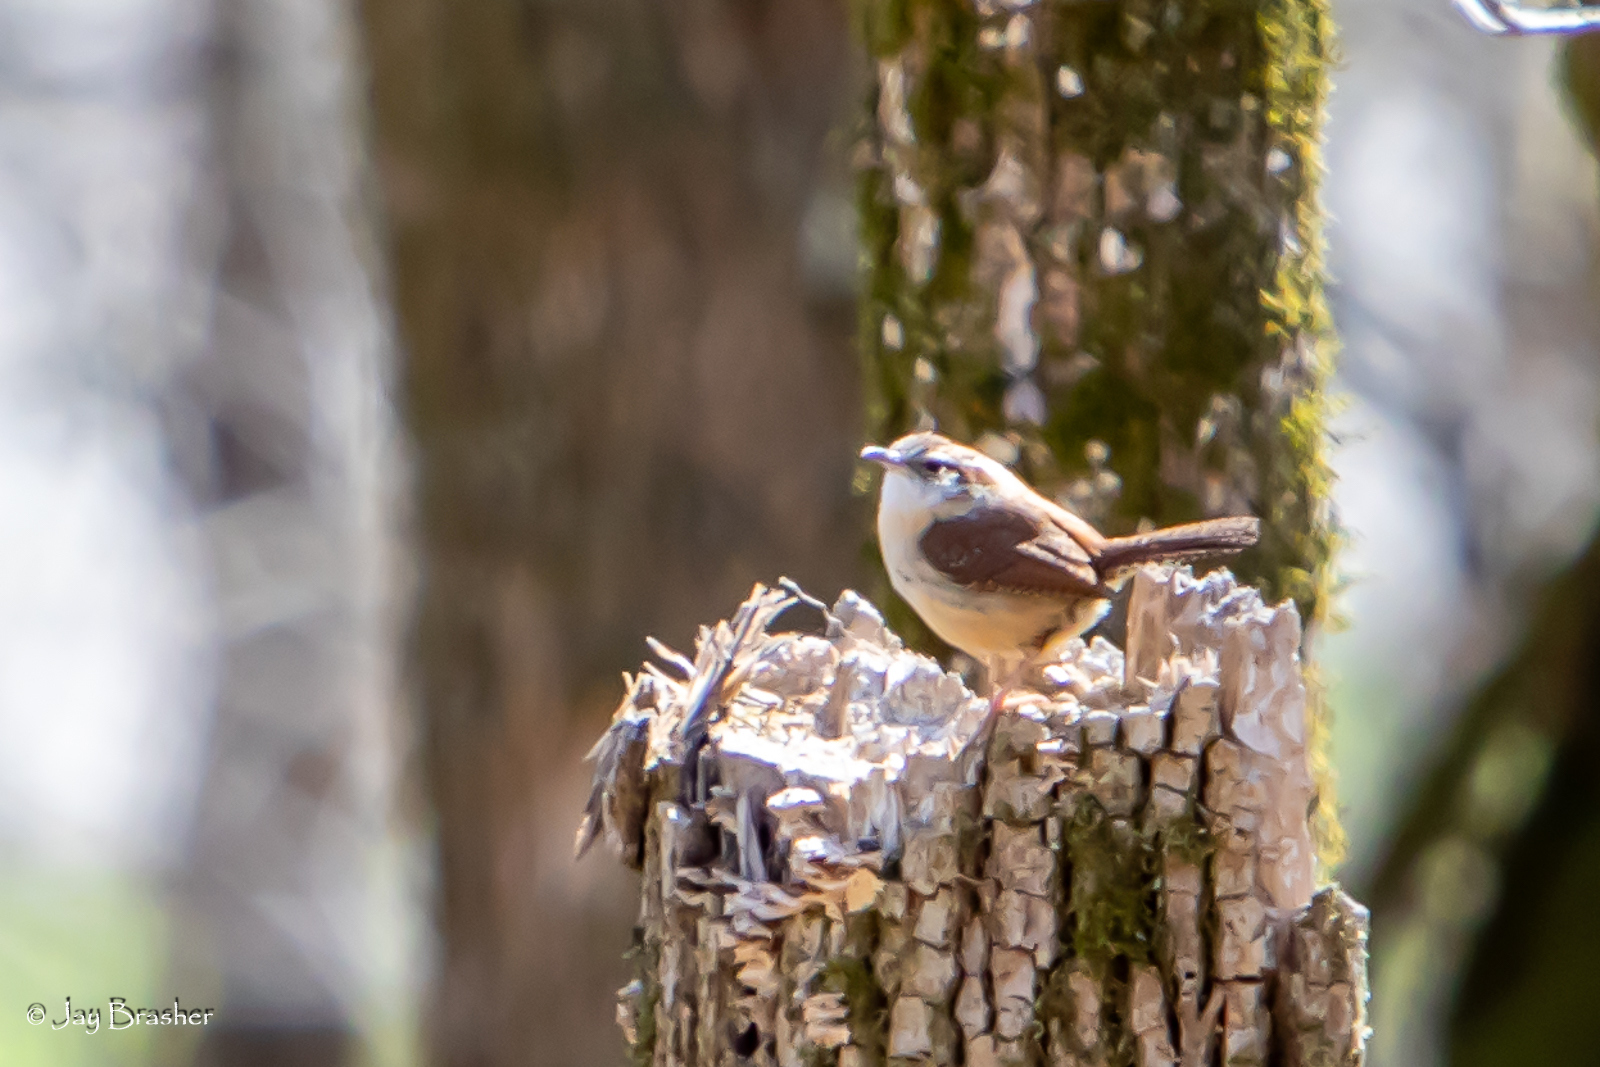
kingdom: Animalia
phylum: Chordata
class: Aves
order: Passeriformes
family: Troglodytidae
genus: Thryothorus
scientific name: Thryothorus ludovicianus
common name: Carolina wren
